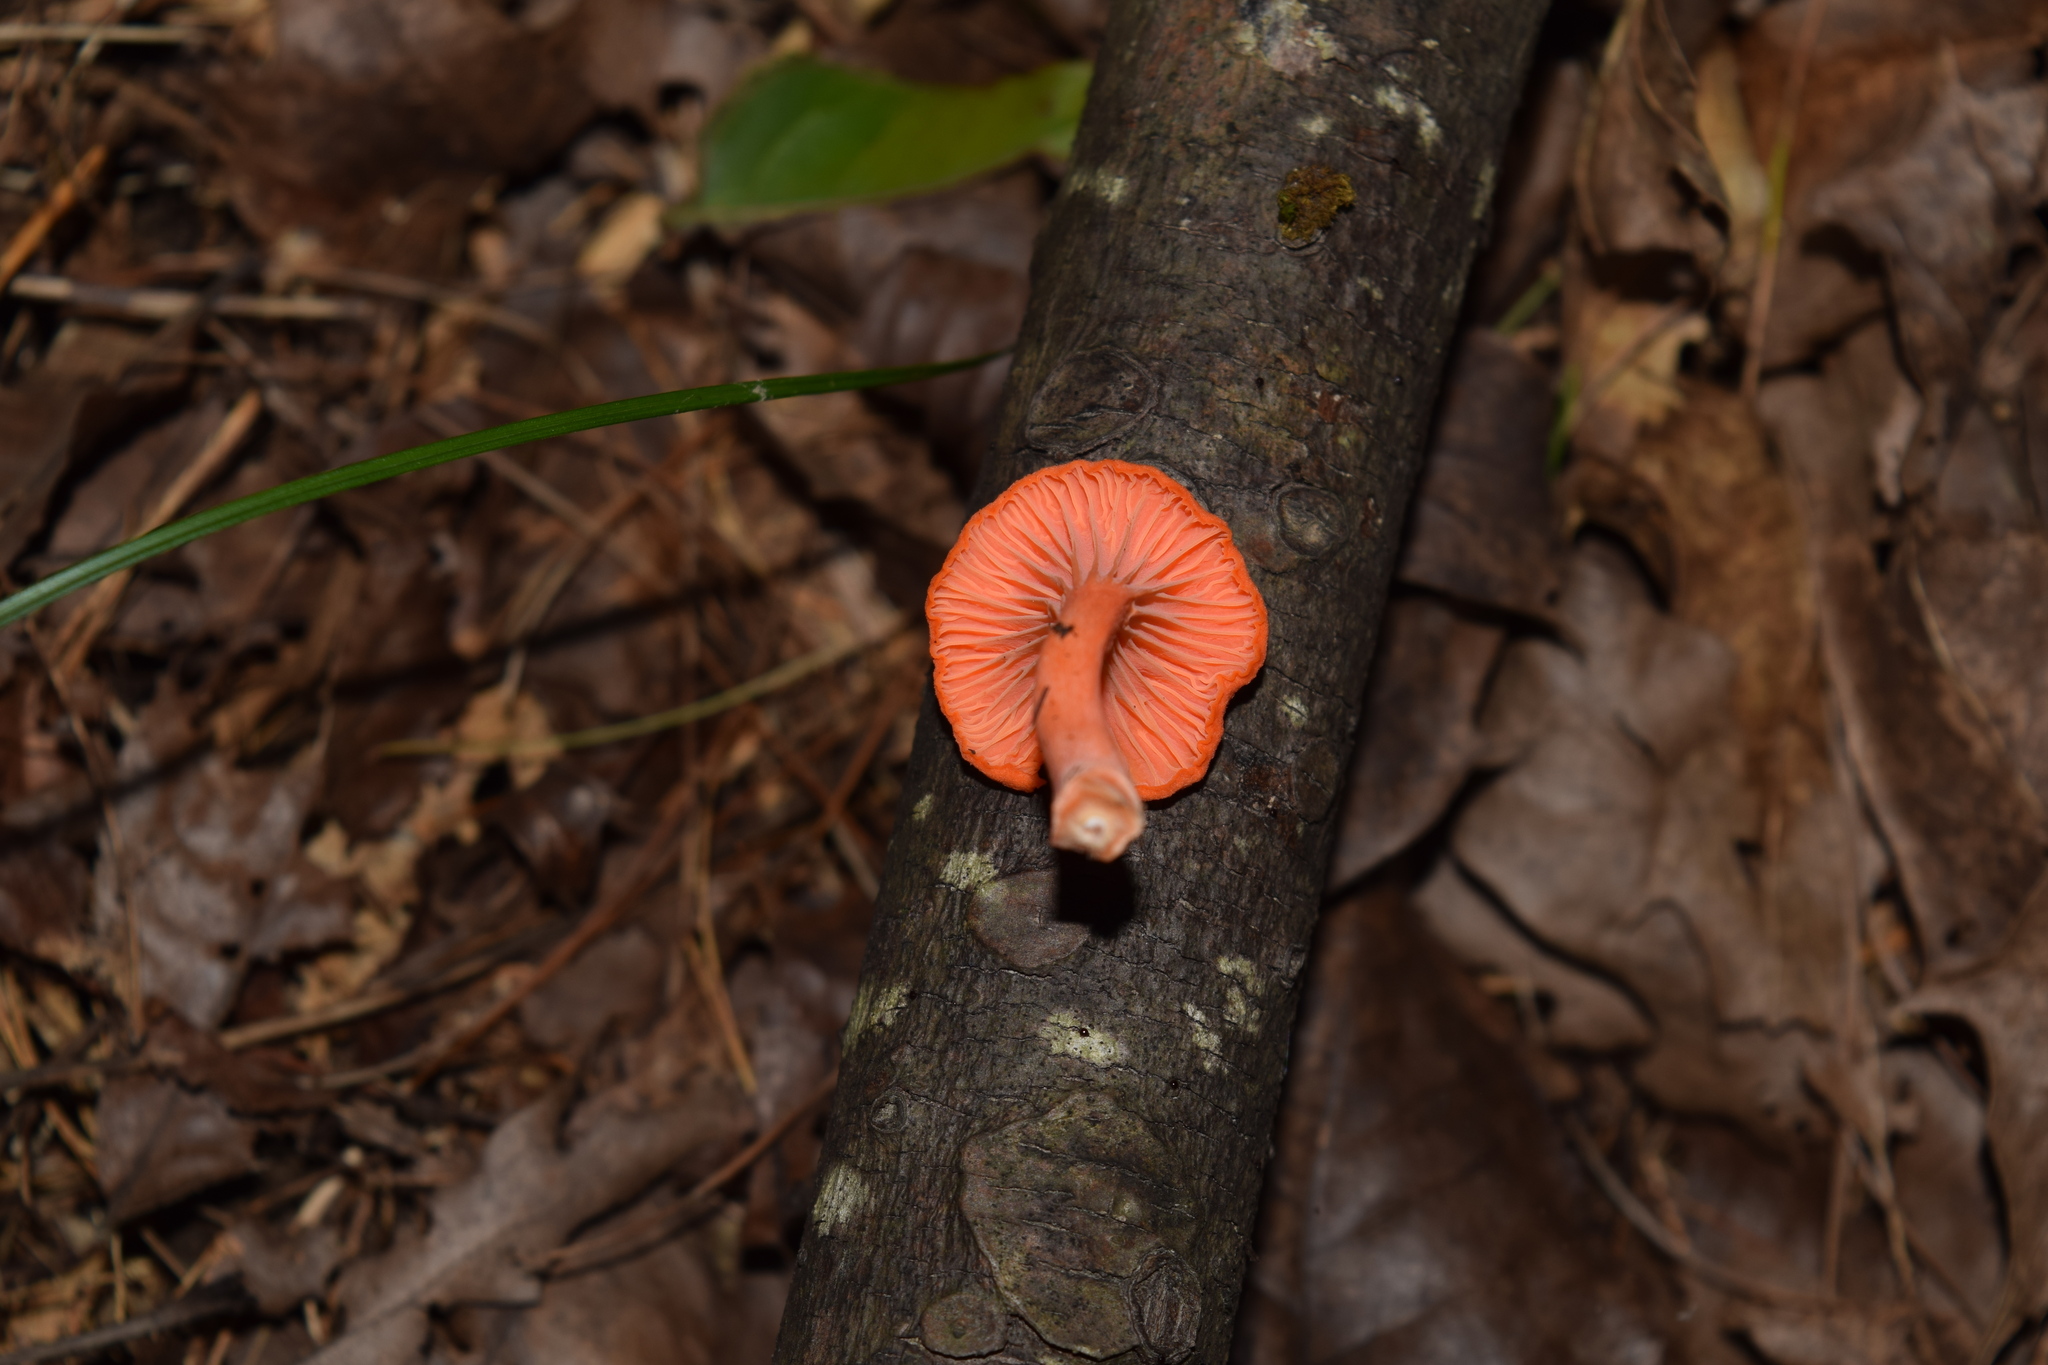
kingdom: Fungi
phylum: Basidiomycota
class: Agaricomycetes
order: Cantharellales
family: Hydnaceae
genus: Cantharellus
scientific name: Cantharellus cinnabarinus
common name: Cinnabar chanterelle
